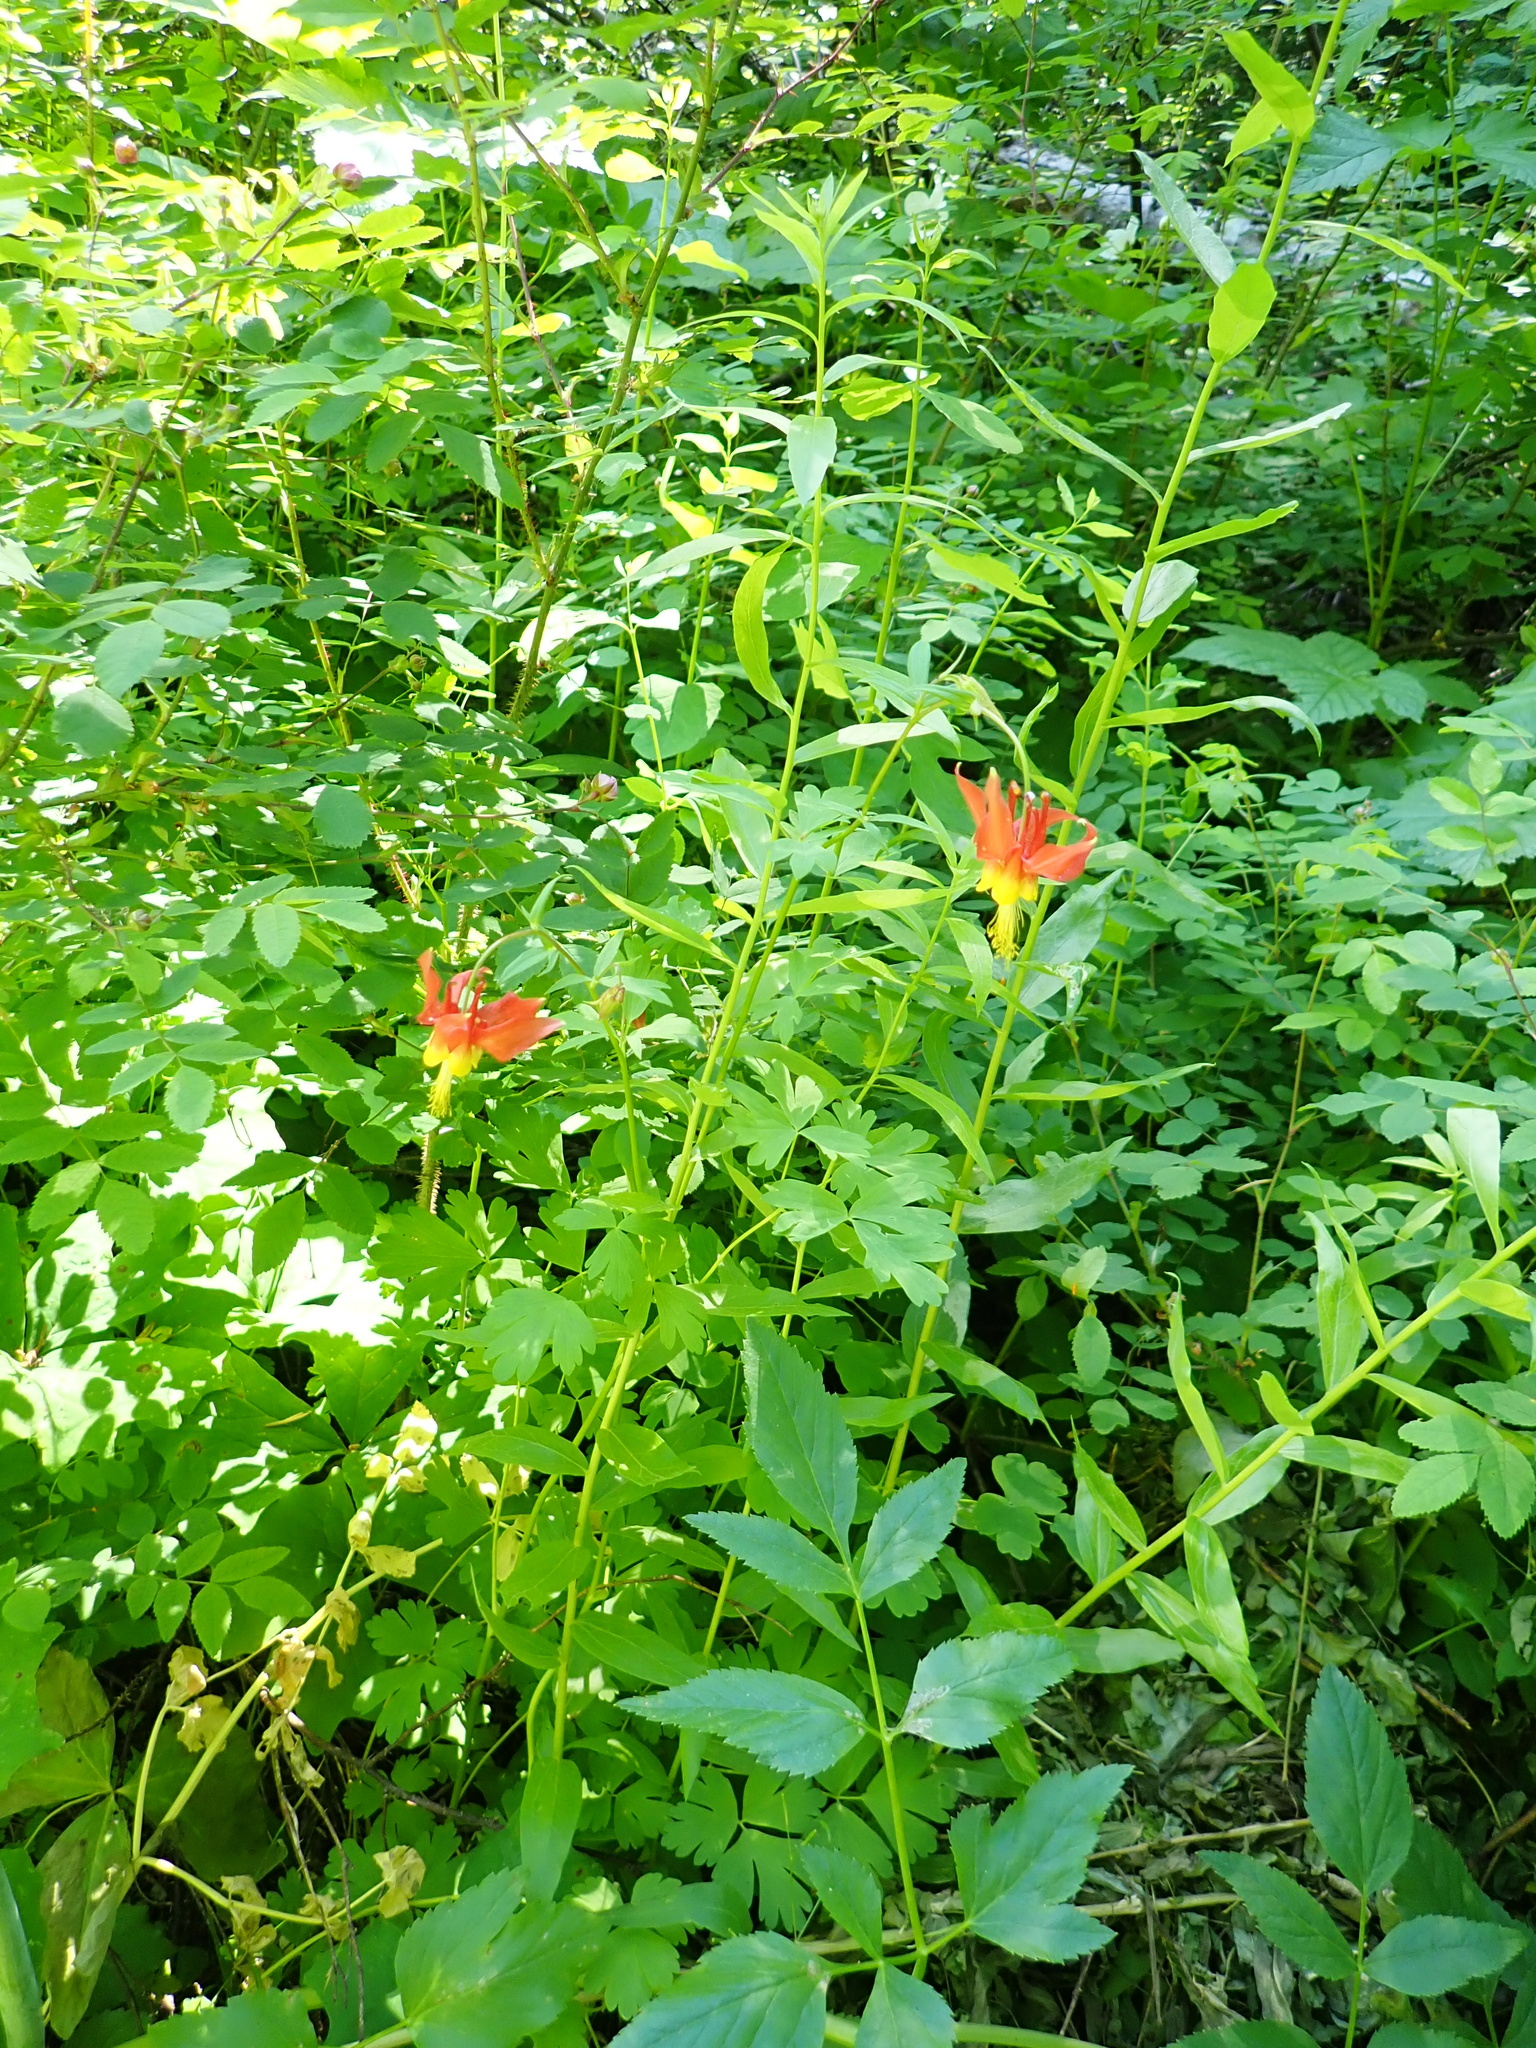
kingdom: Plantae
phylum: Tracheophyta
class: Magnoliopsida
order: Ranunculales
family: Ranunculaceae
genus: Aquilegia
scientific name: Aquilegia formosa
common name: Sitka columbine
